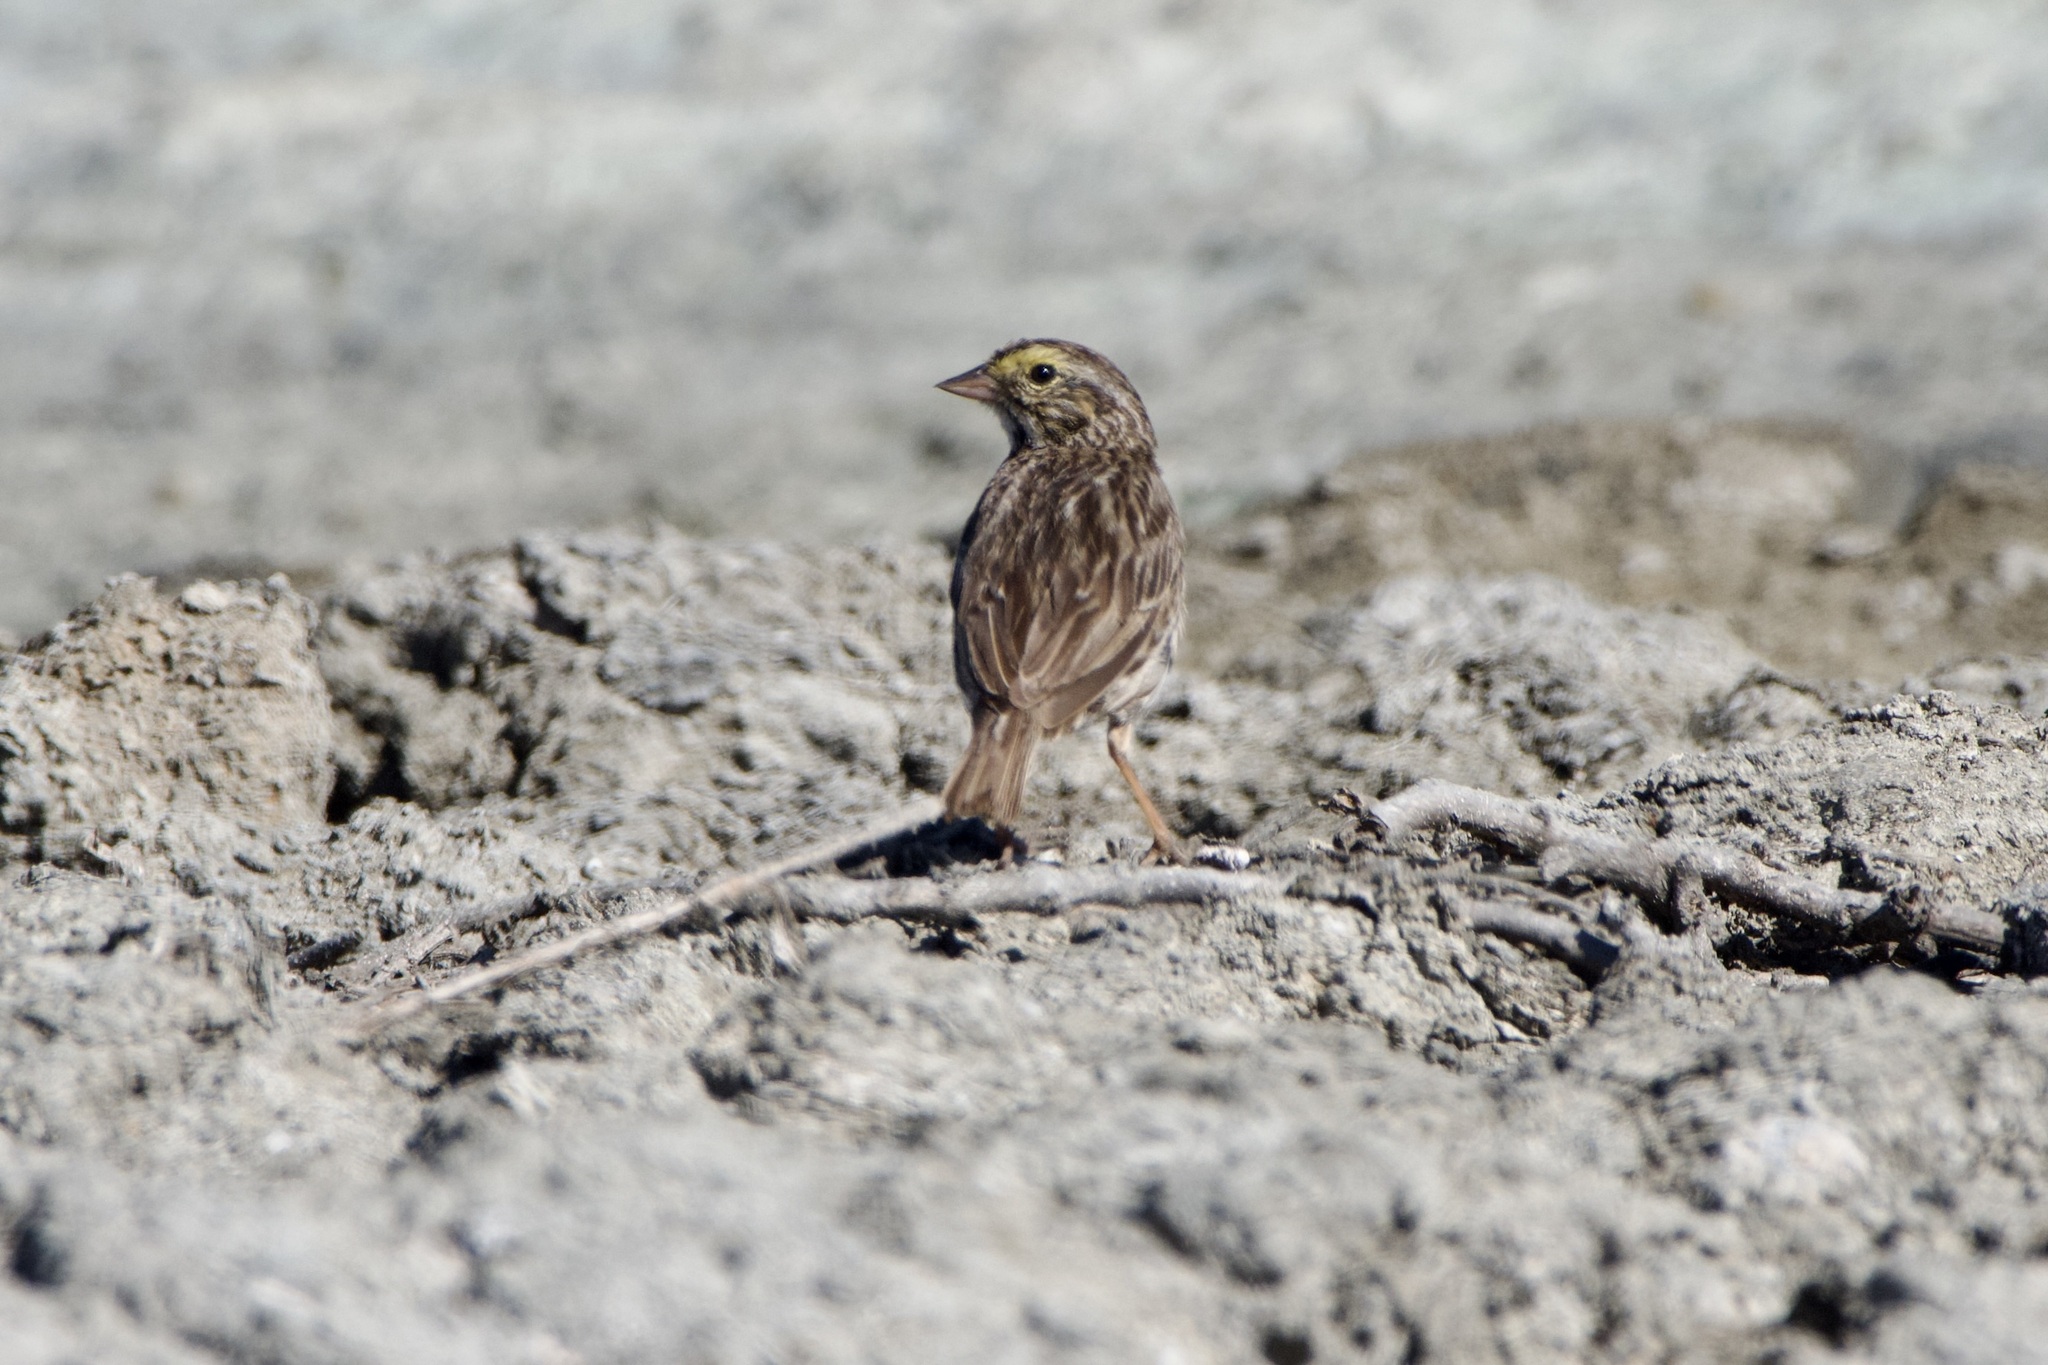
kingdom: Animalia
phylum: Chordata
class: Aves
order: Passeriformes
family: Passerellidae
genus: Passerculus
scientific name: Passerculus sandwichensis
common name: Savannah sparrow
